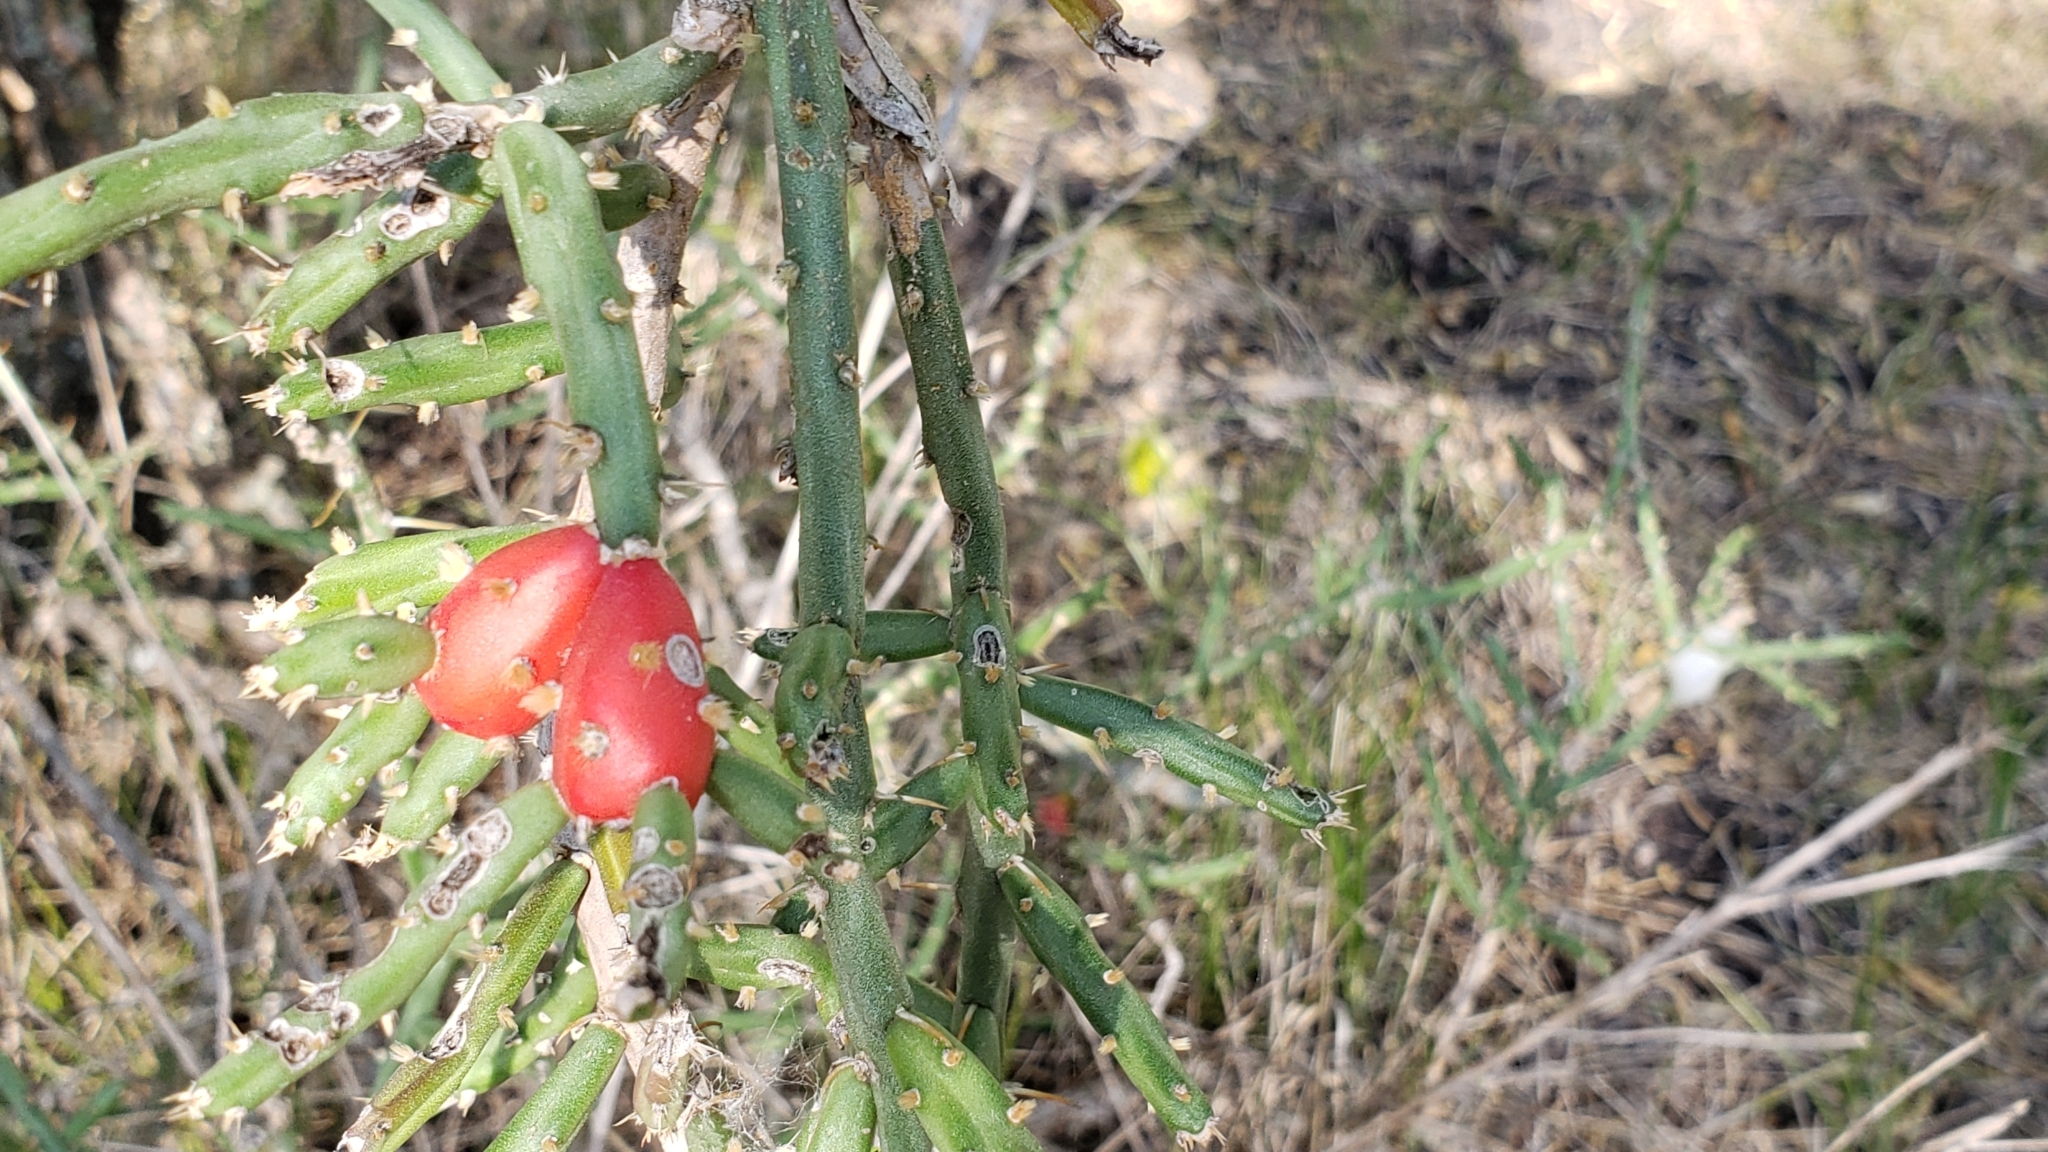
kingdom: Plantae
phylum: Tracheophyta
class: Magnoliopsida
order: Caryophyllales
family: Cactaceae
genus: Cylindropuntia
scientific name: Cylindropuntia leptocaulis
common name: Christmas cactus
